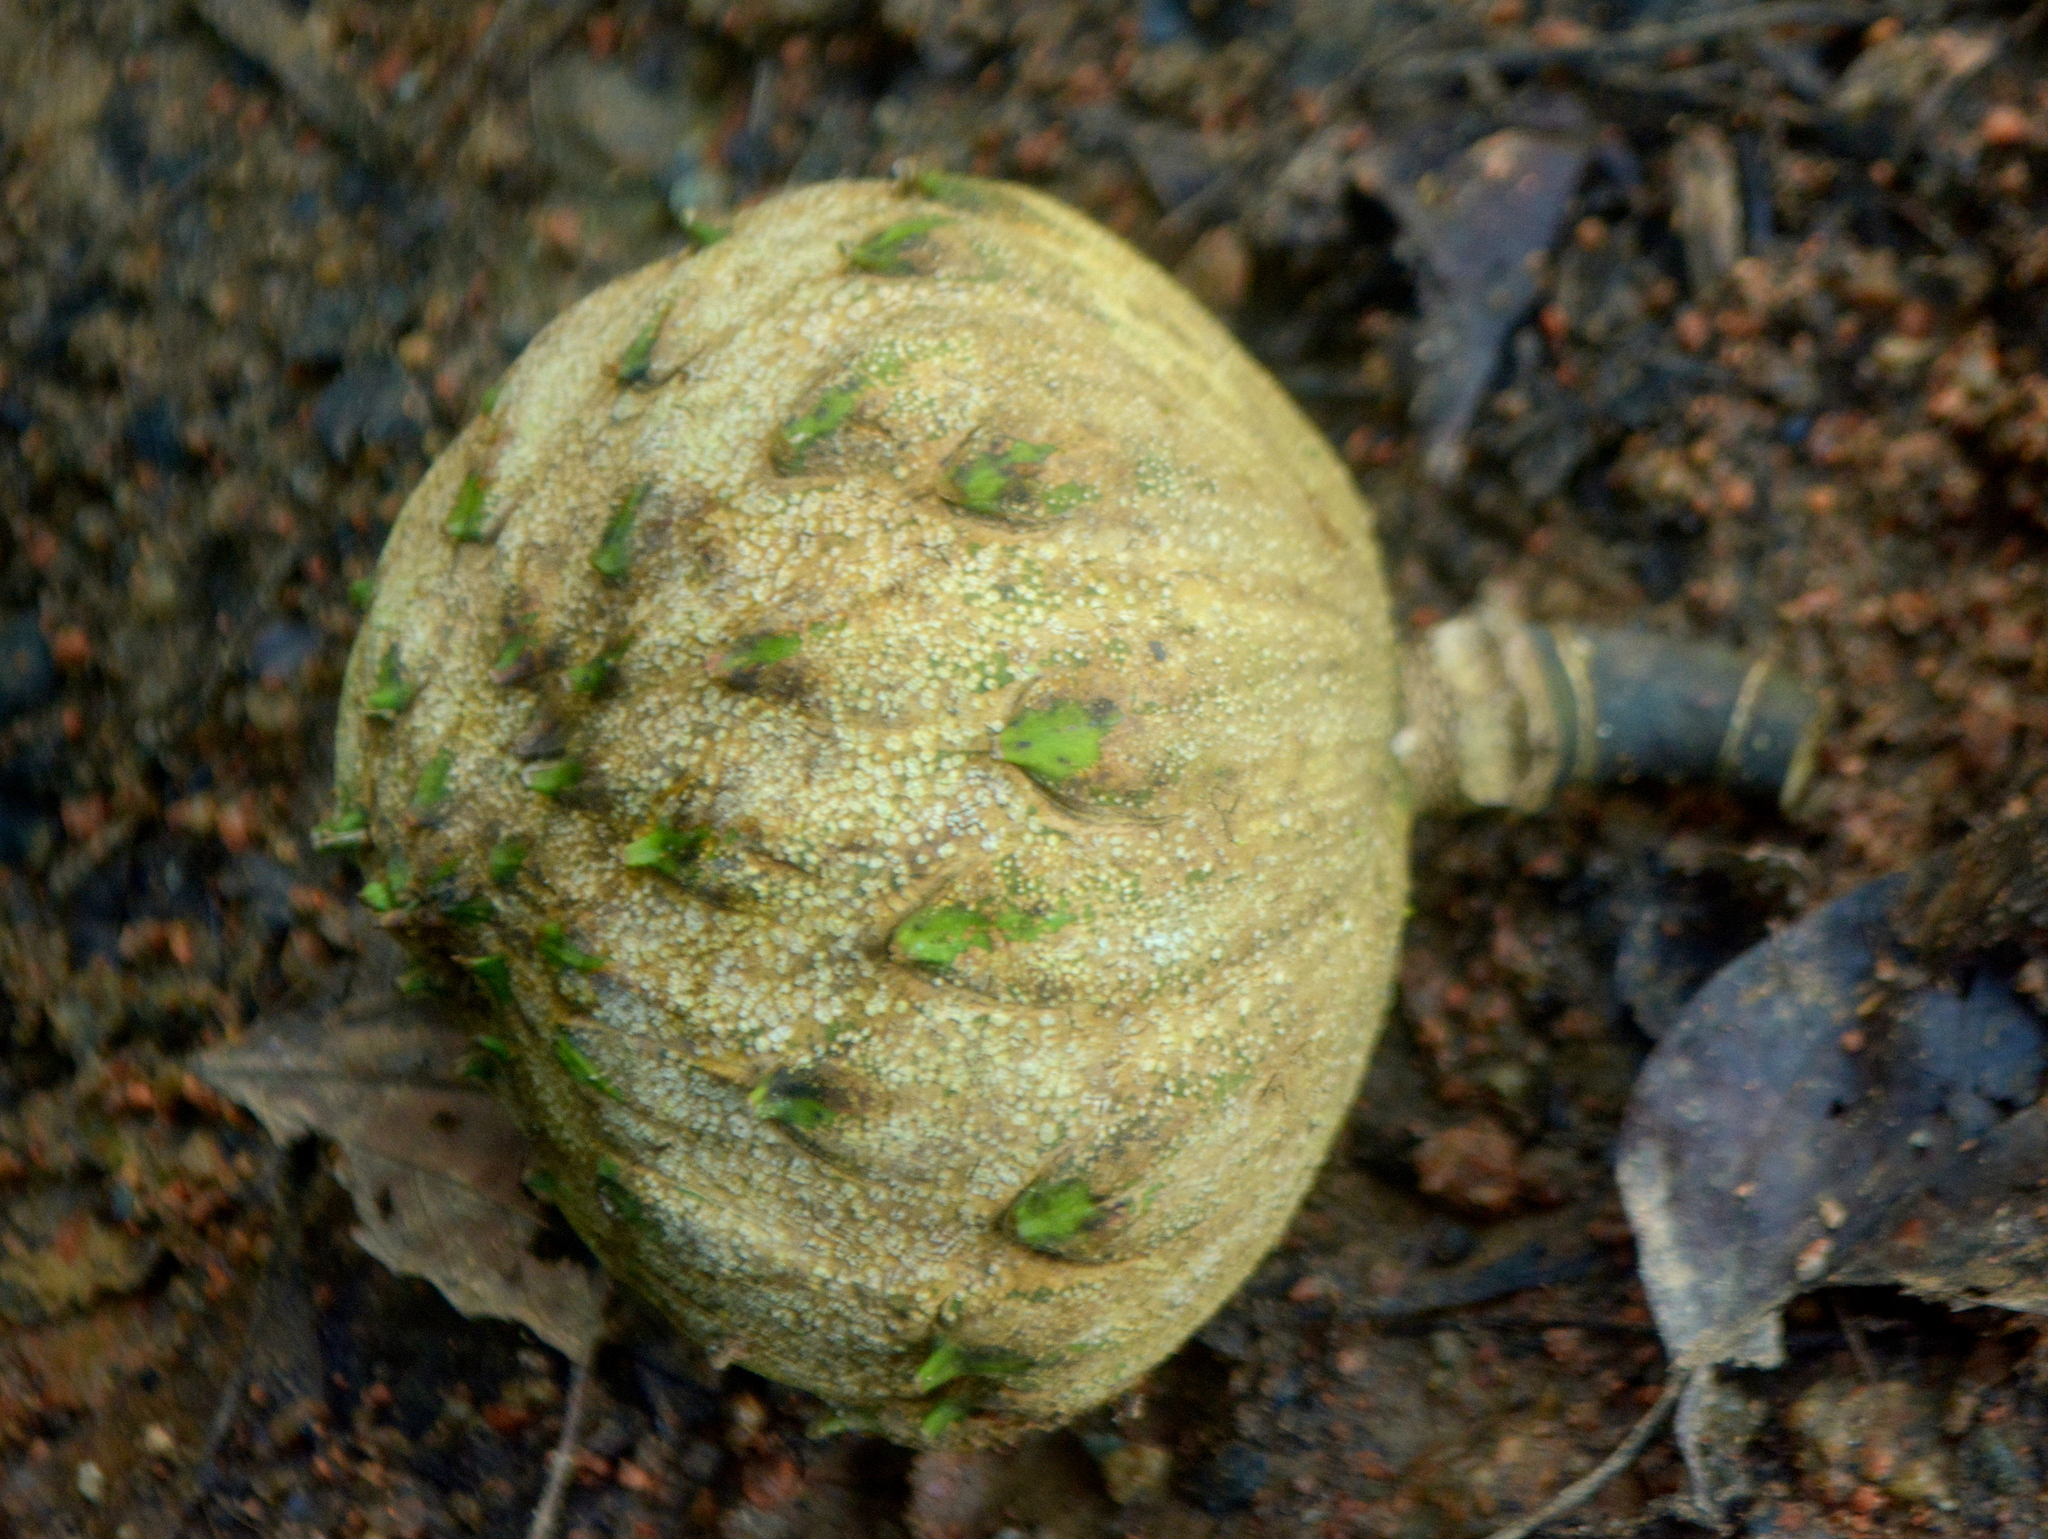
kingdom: Plantae
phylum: Tracheophyta
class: Magnoliopsida
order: Magnoliales
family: Magnoliaceae
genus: Magnolia
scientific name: Magnolia ovata
